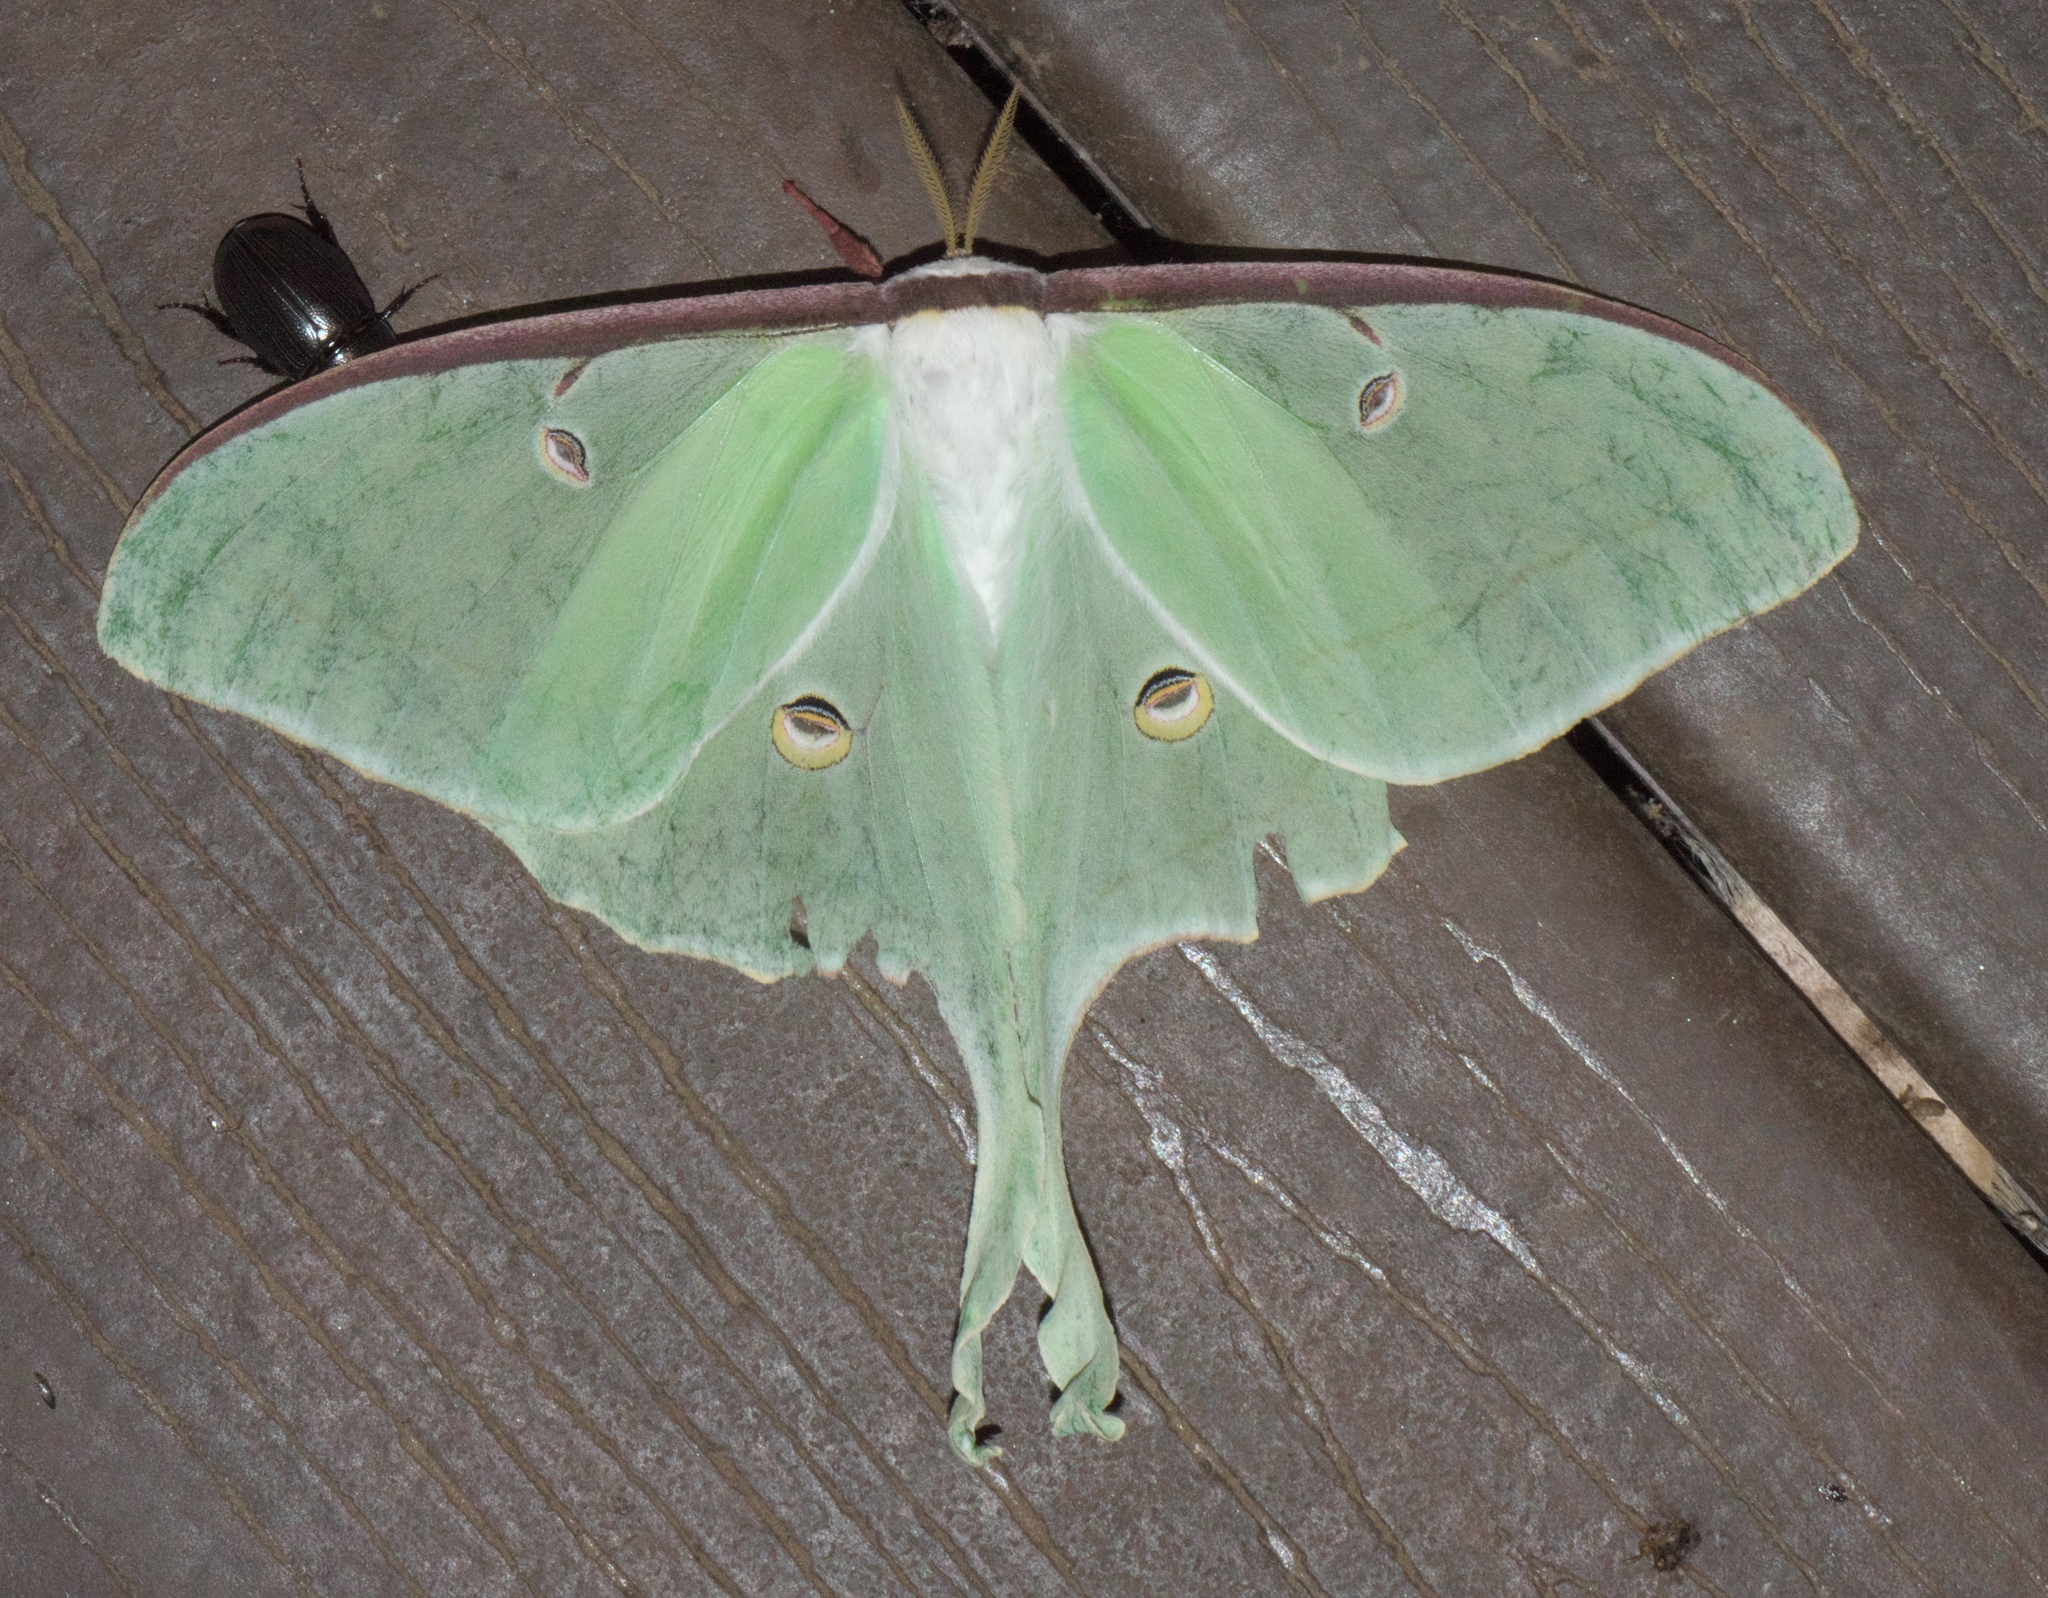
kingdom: Animalia
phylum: Arthropoda
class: Insecta
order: Lepidoptera
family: Saturniidae
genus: Actias
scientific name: Actias luna
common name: Luna moth
